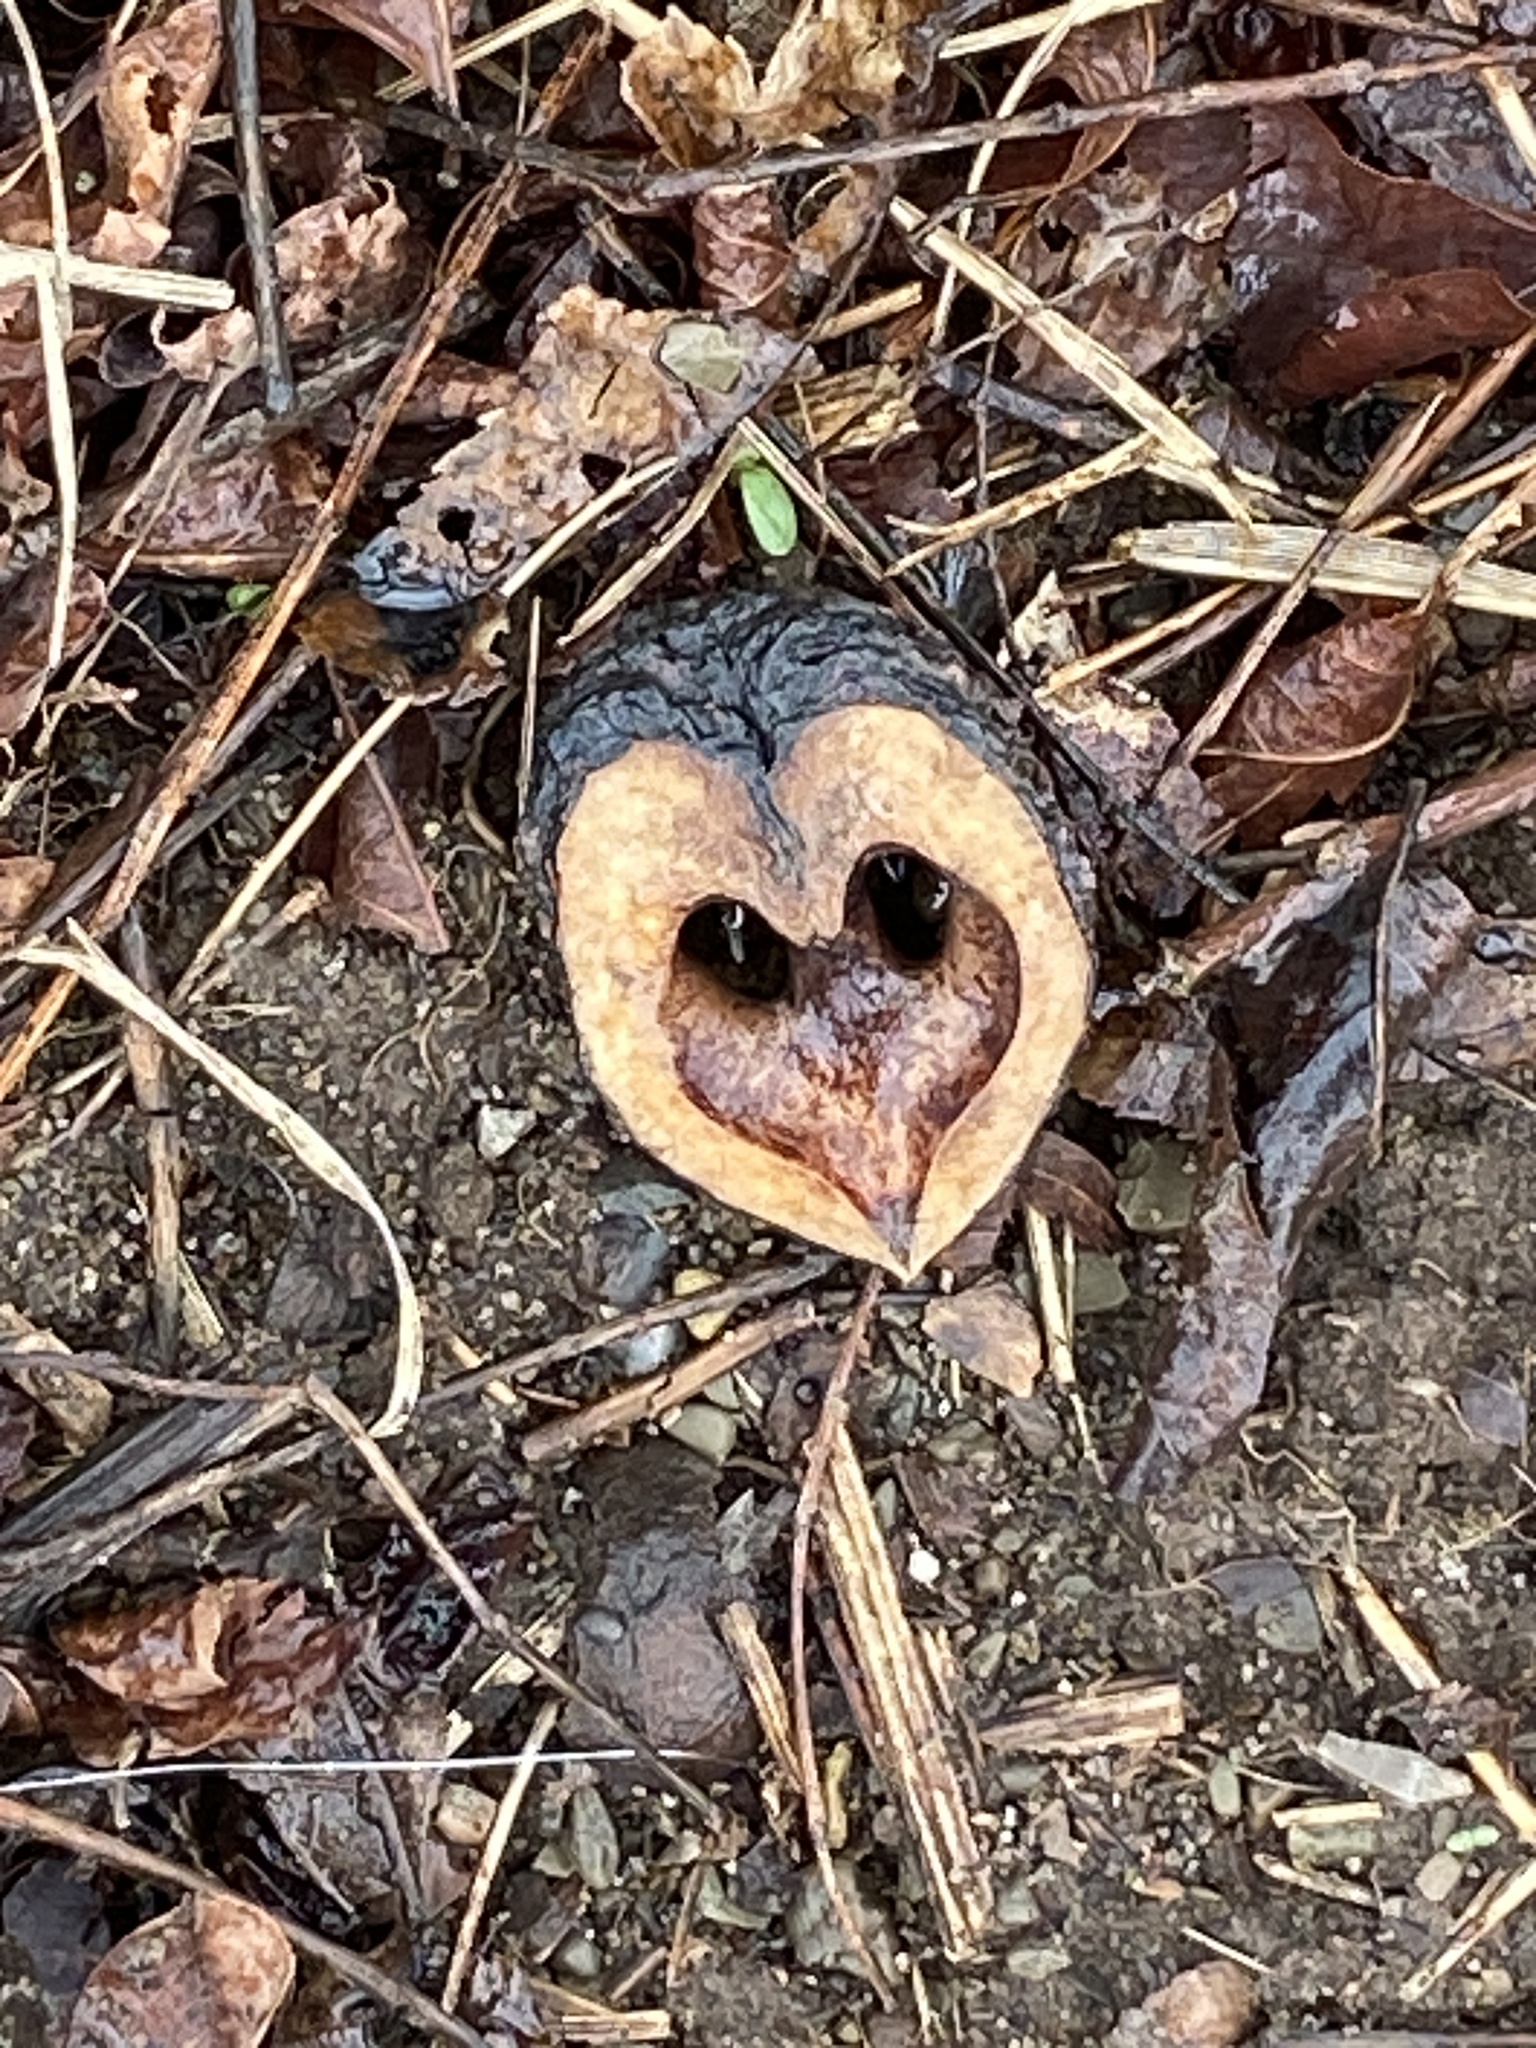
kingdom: Plantae
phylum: Tracheophyta
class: Magnoliopsida
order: Fagales
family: Juglandaceae
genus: Juglans
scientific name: Juglans nigra
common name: Black walnut
